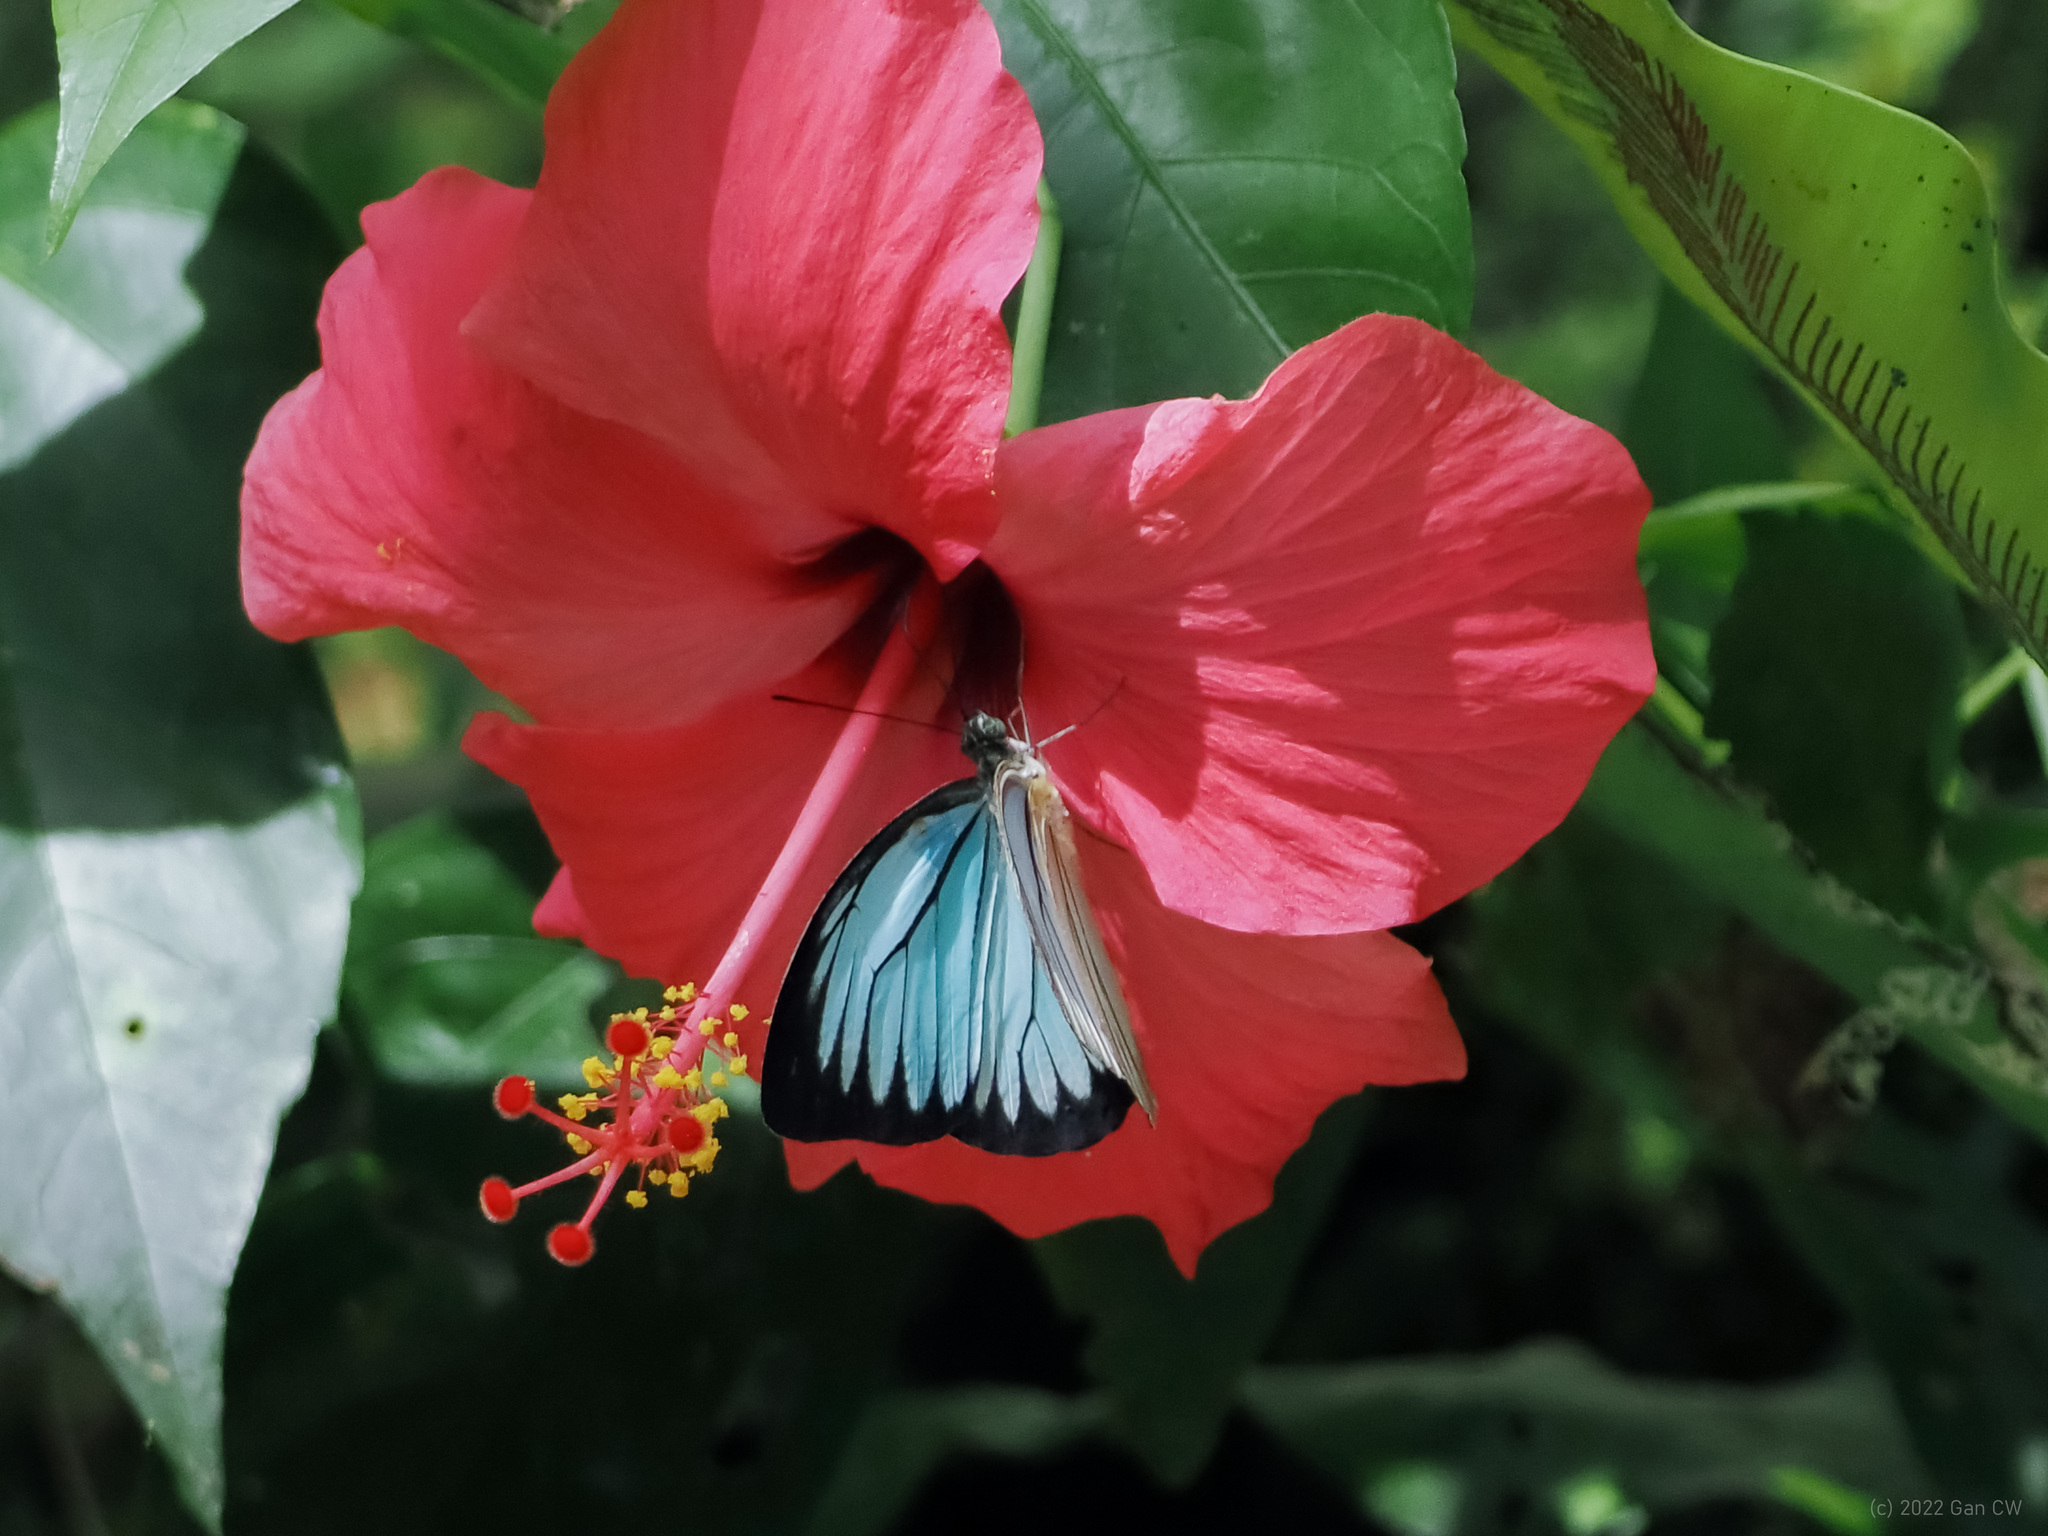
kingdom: Animalia
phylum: Arthropoda
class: Insecta
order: Lepidoptera
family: Pieridae
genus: Pareronia
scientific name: Pareronia valeria
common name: Common wanderer?
